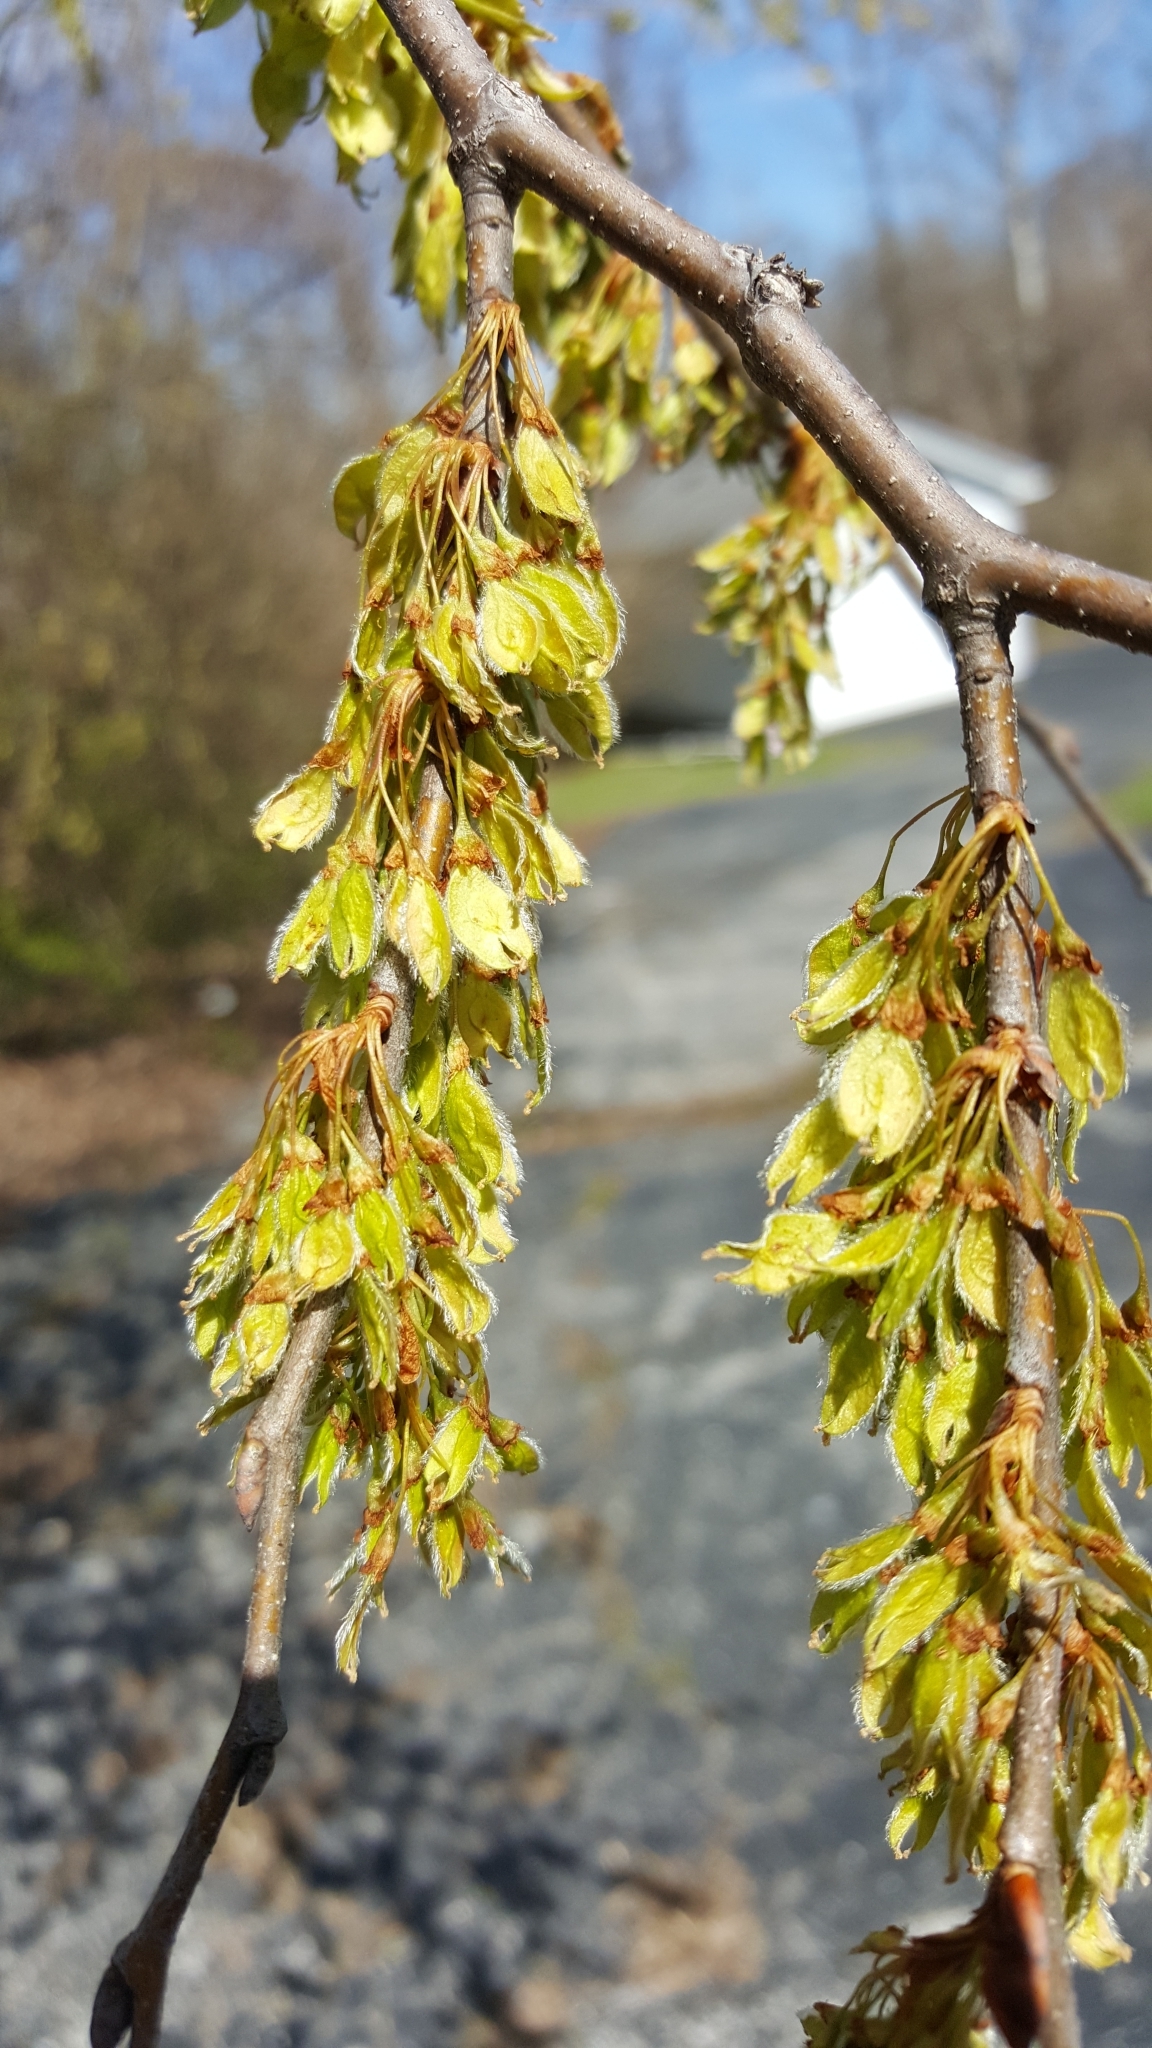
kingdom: Plantae
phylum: Tracheophyta
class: Magnoliopsida
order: Rosales
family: Ulmaceae
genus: Ulmus
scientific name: Ulmus americana
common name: American elm
